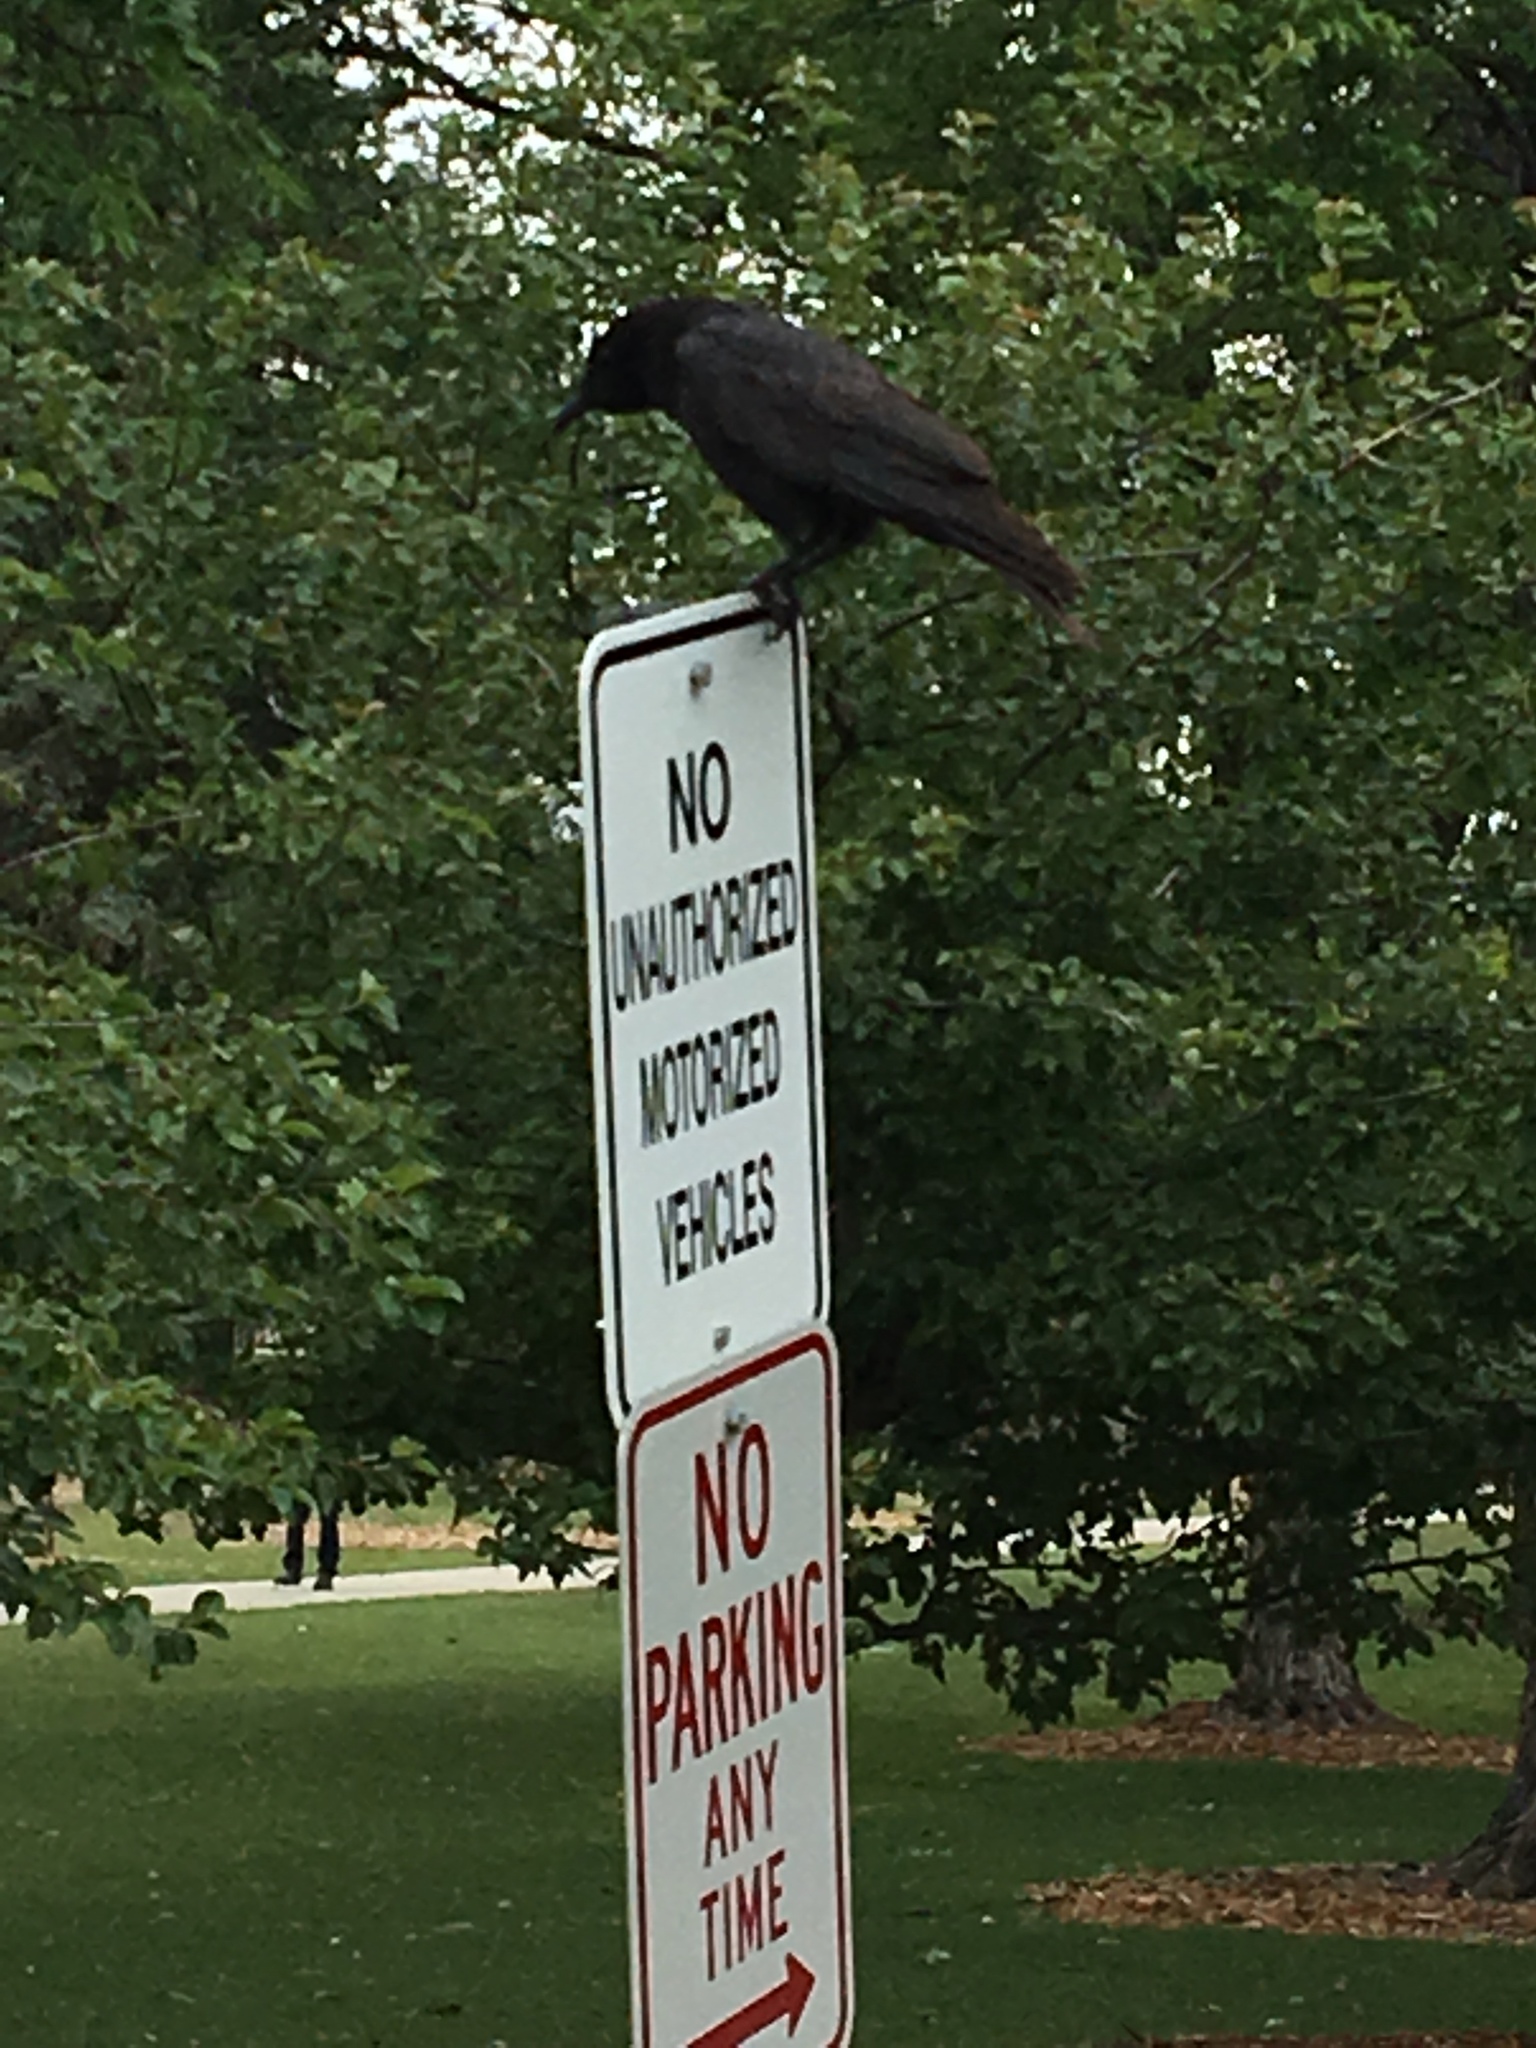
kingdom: Animalia
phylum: Chordata
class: Aves
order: Passeriformes
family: Corvidae
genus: Corvus
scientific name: Corvus brachyrhynchos
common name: American crow
